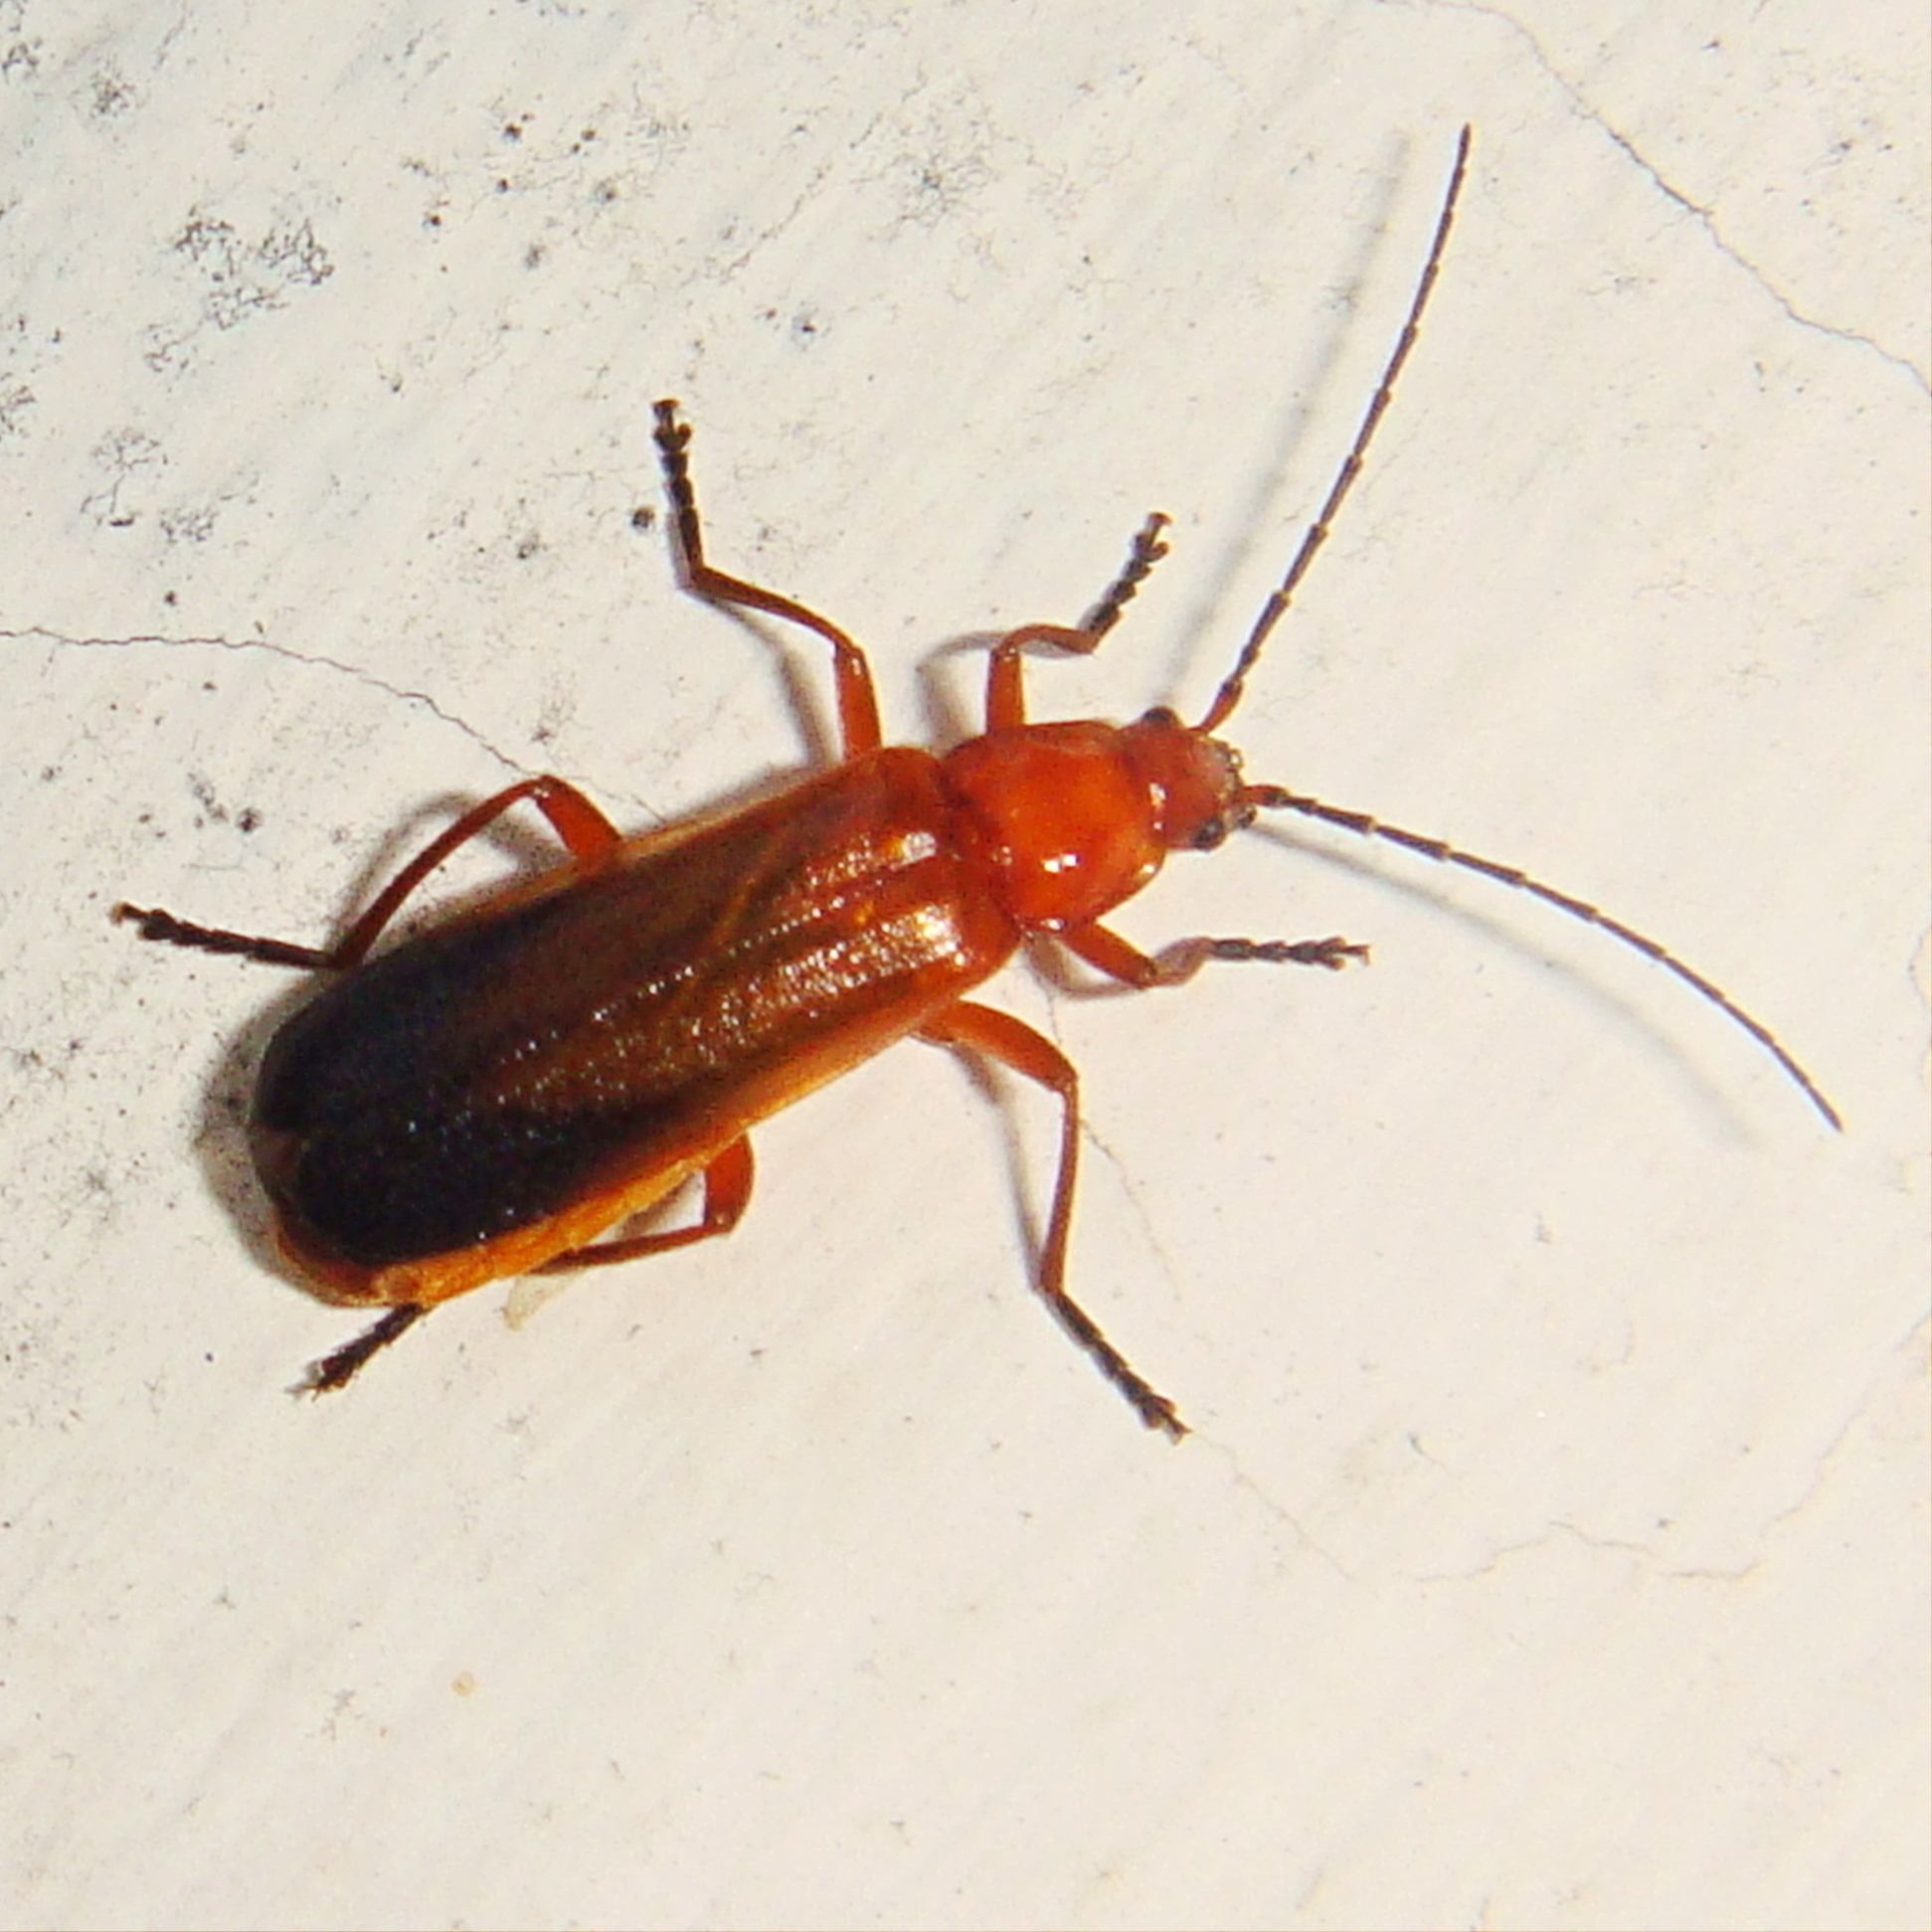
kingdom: Animalia
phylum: Arthropoda
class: Insecta
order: Coleoptera
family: Cantharidae
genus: Rhagonycha
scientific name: Rhagonycha fulva
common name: Common red soldier beetle
